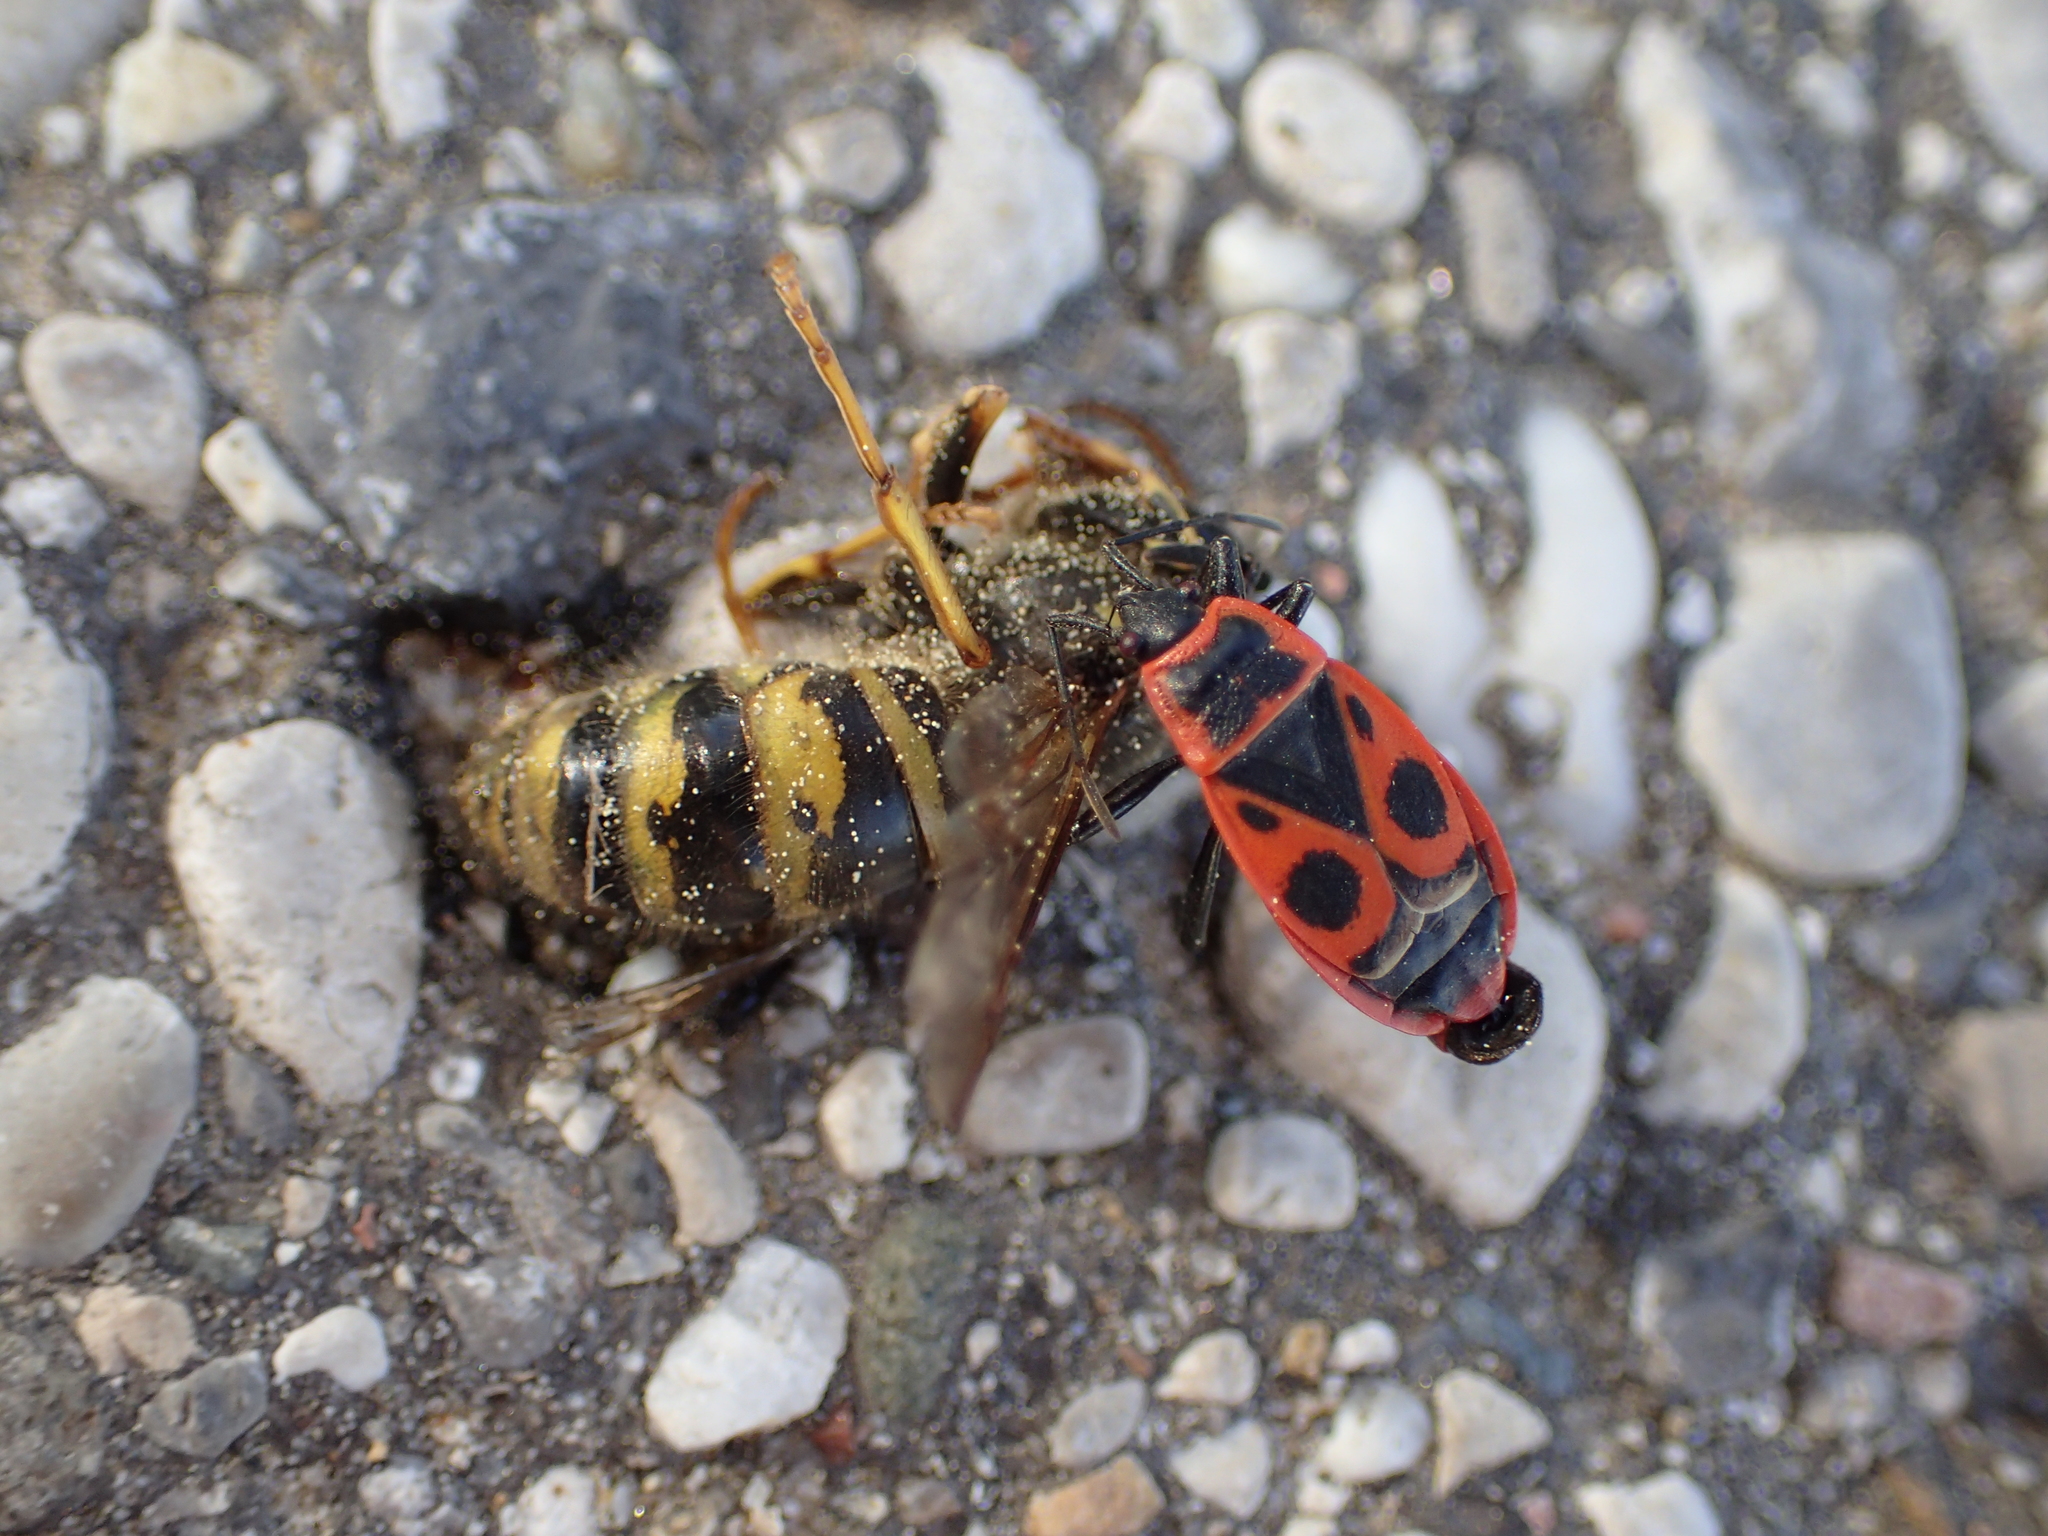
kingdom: Animalia
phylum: Arthropoda
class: Insecta
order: Hemiptera
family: Pyrrhocoridae
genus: Pyrrhocoris
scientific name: Pyrrhocoris apterus
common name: Firebug
